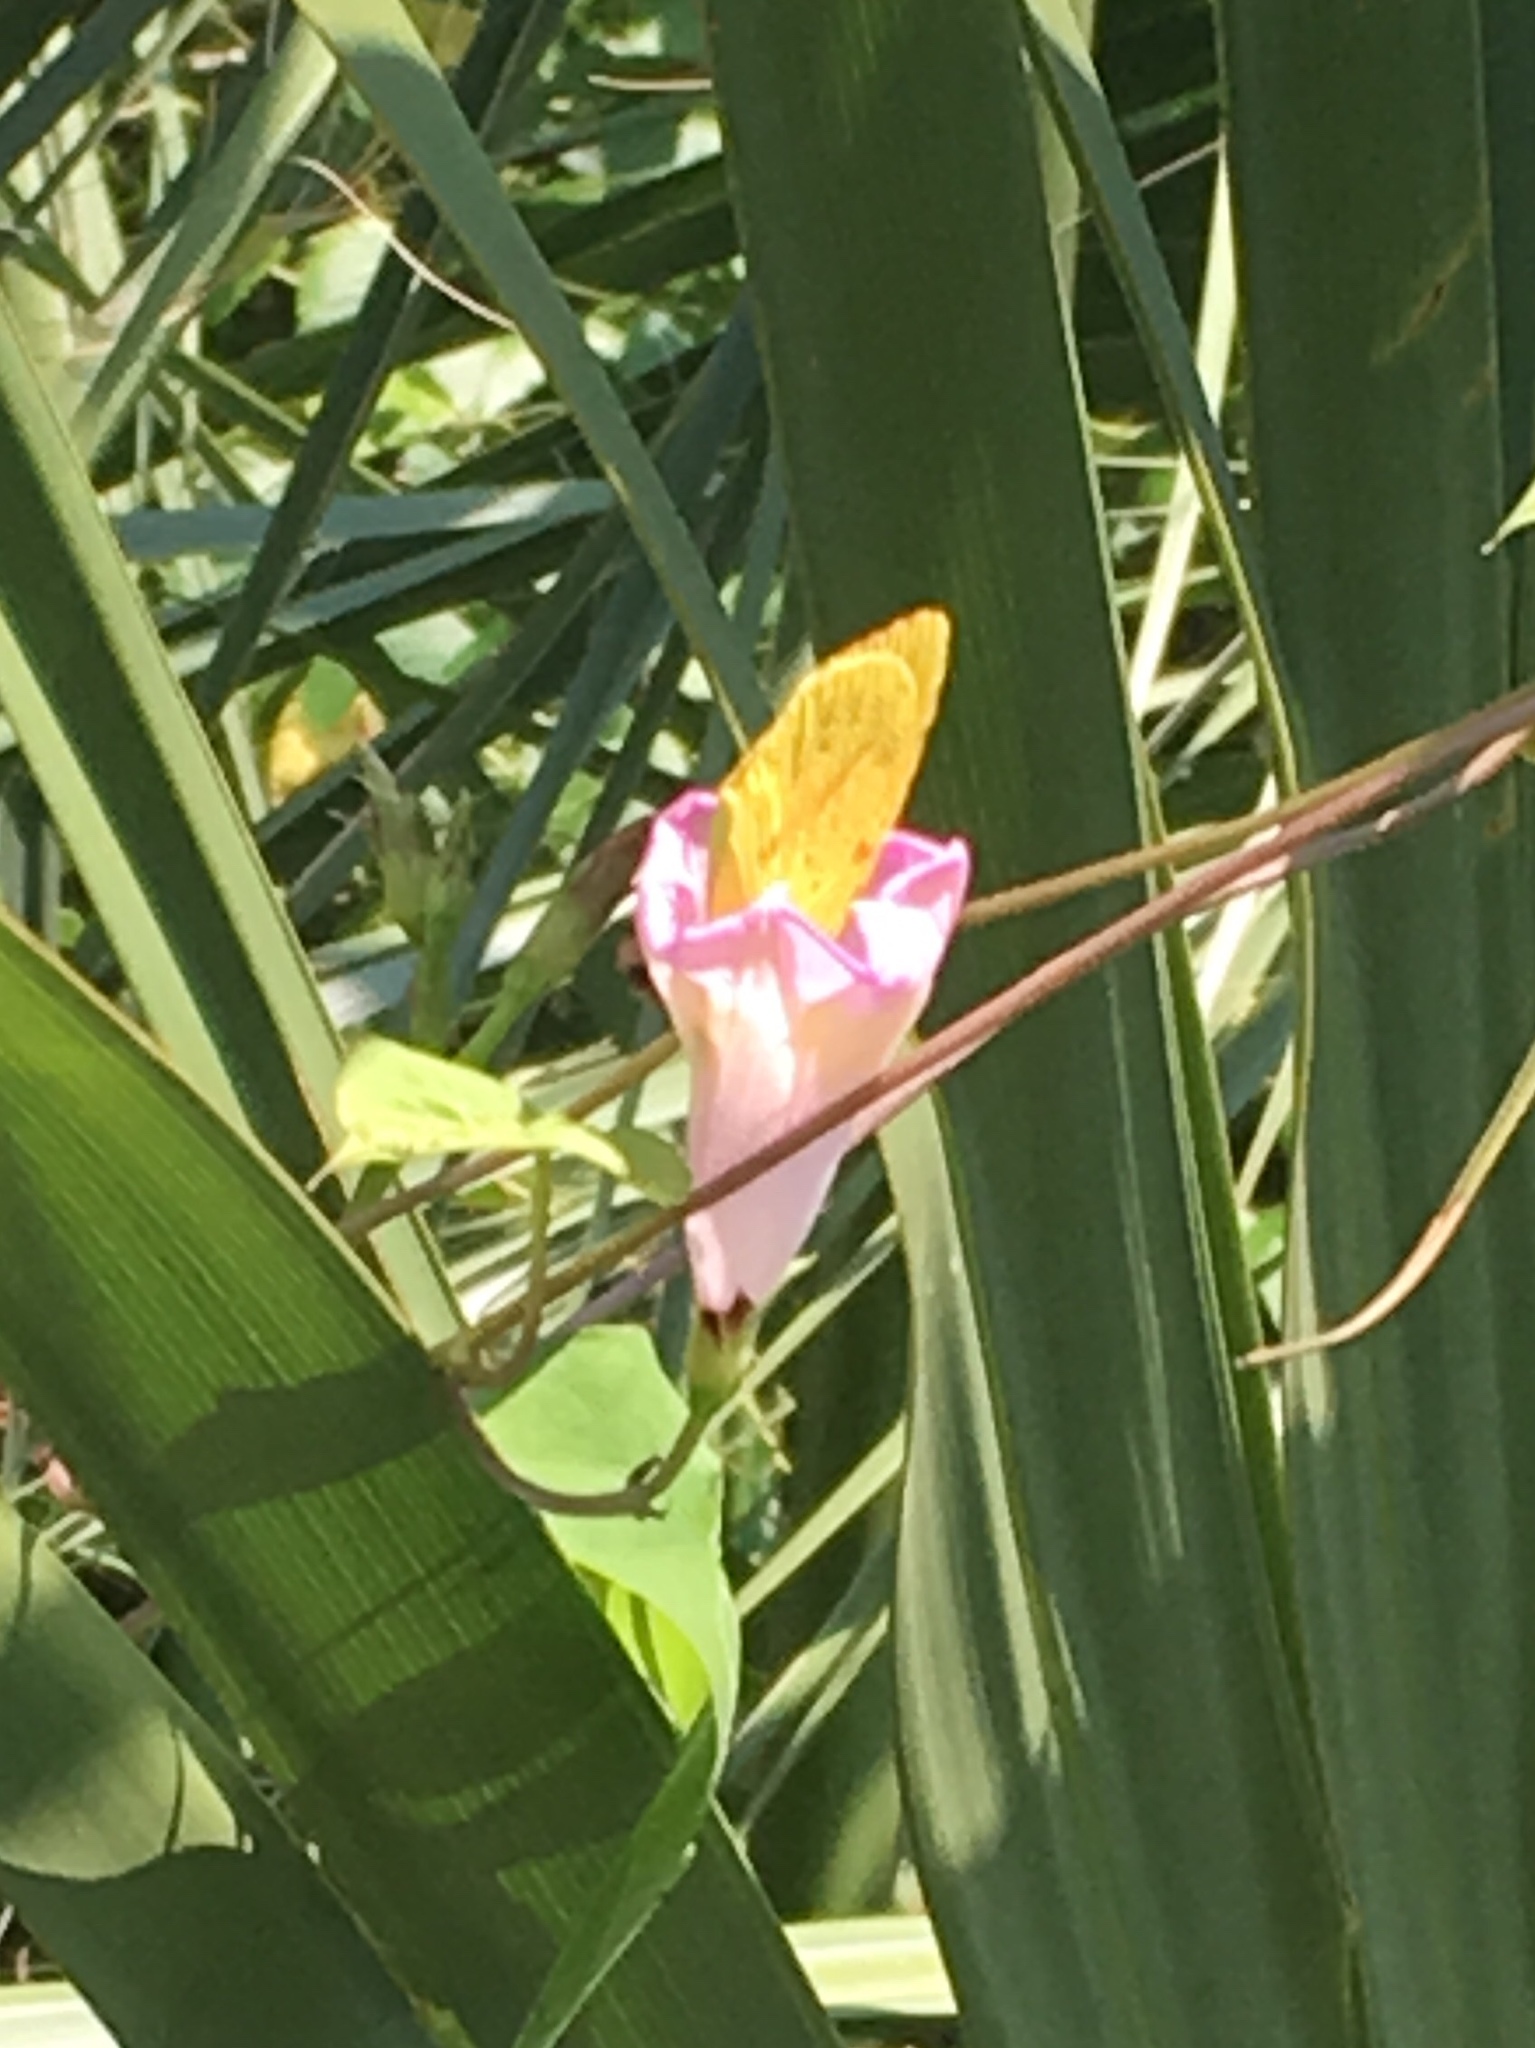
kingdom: Animalia
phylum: Arthropoda
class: Insecta
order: Lepidoptera
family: Pieridae
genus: Abaeis
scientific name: Abaeis nicippe
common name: Sleepy orange
